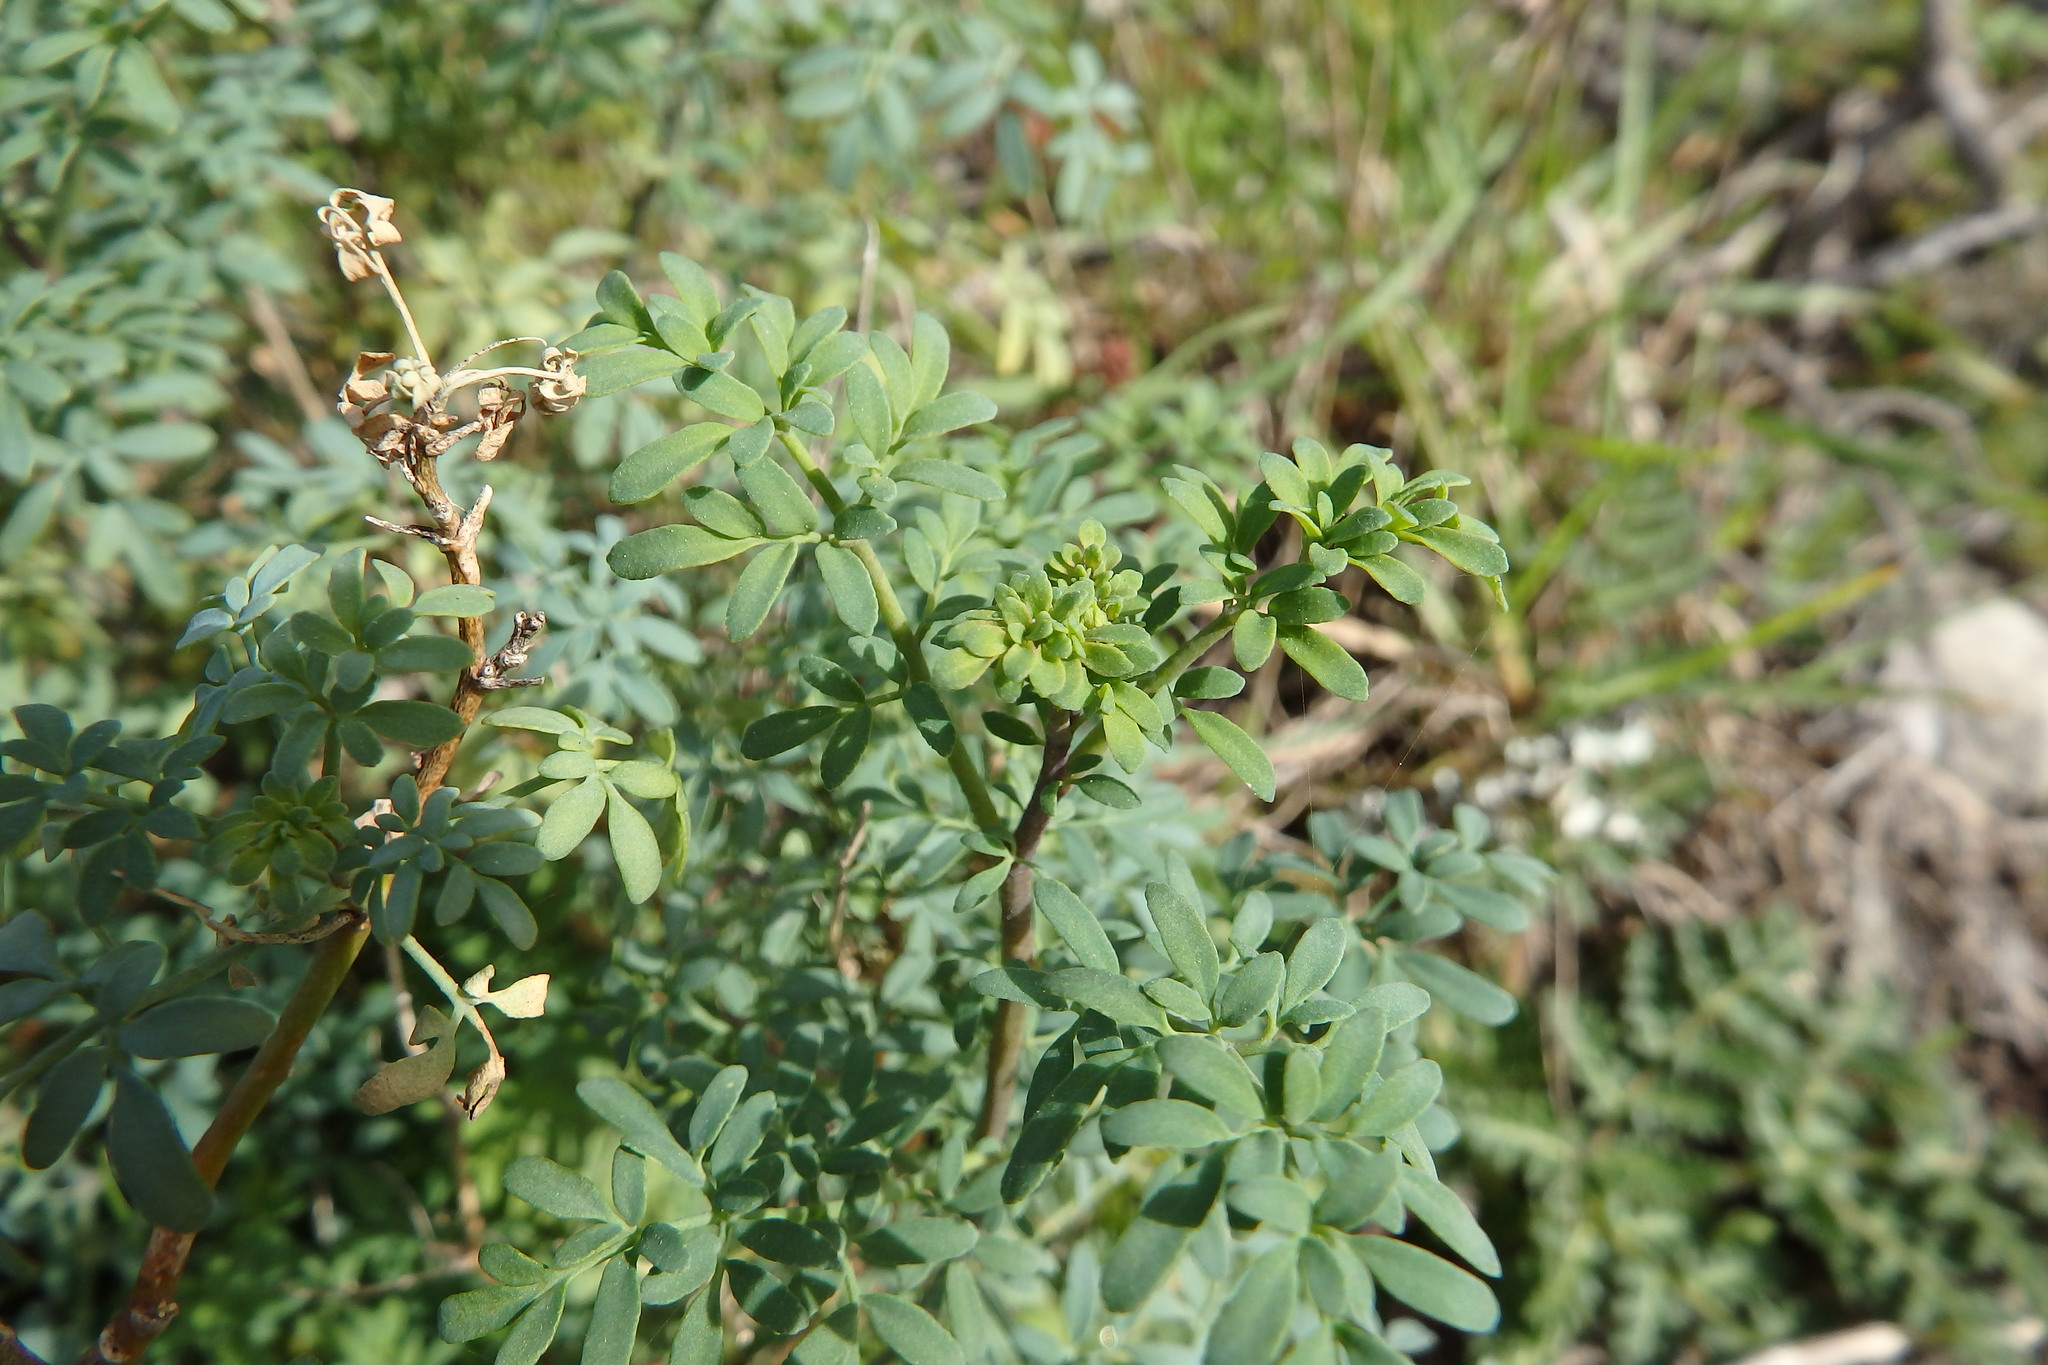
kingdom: Plantae
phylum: Tracheophyta
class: Magnoliopsida
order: Sapindales
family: Rutaceae
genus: Ruta
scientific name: Ruta chalepensis
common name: Fringed rue
